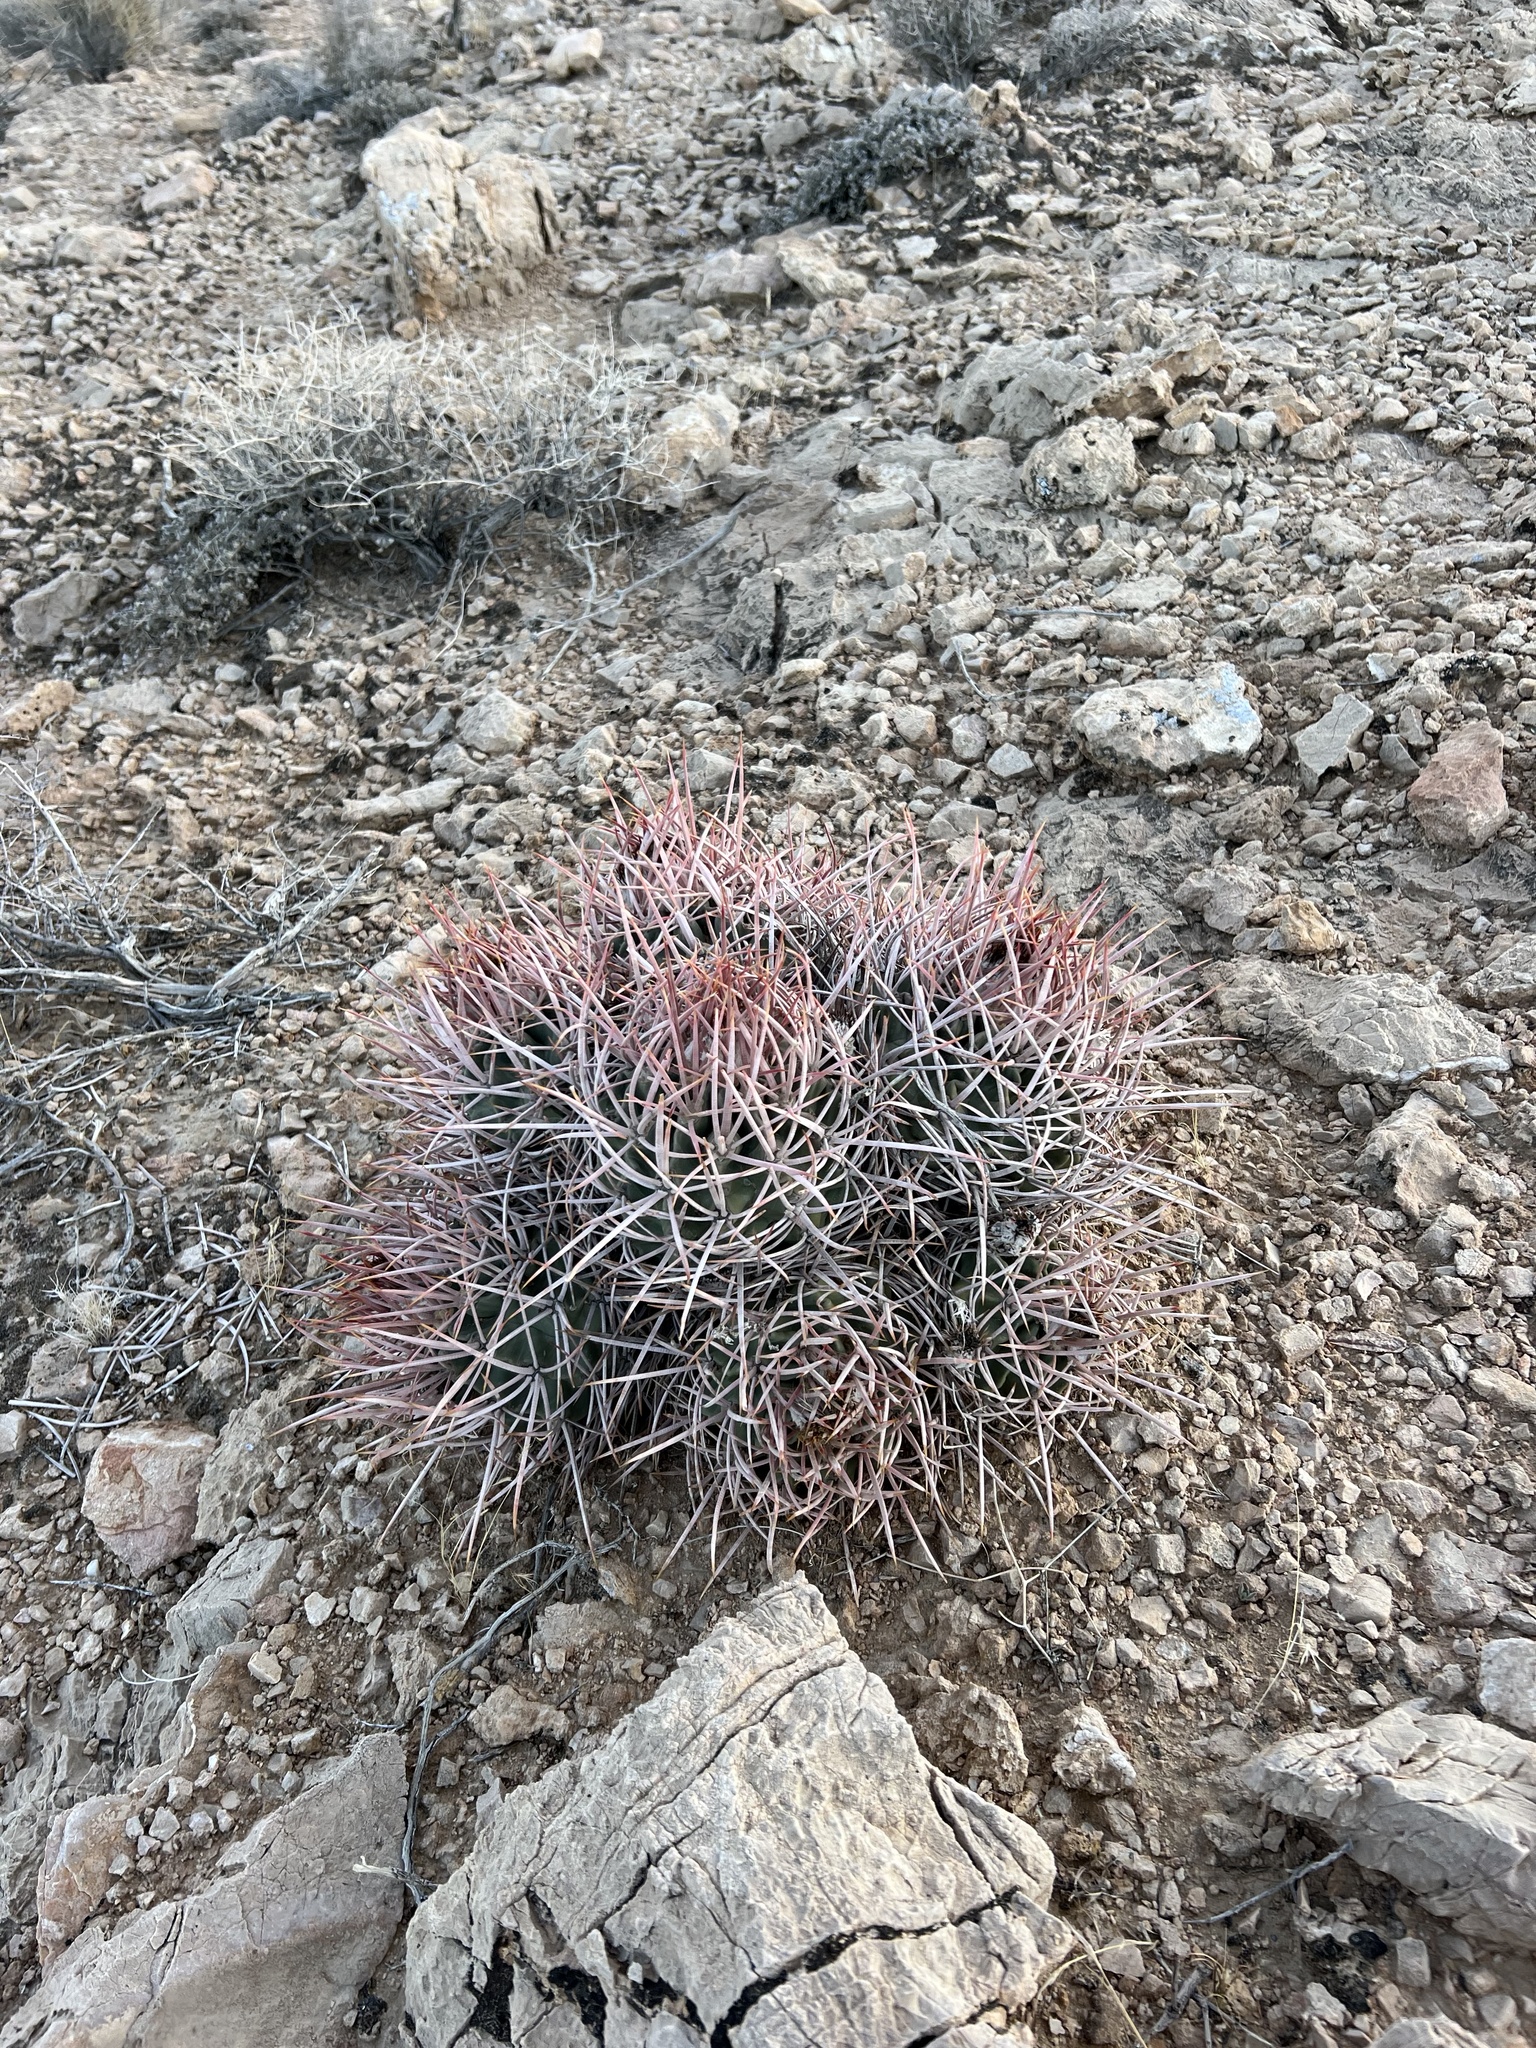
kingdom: Plantae
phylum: Tracheophyta
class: Magnoliopsida
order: Caryophyllales
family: Cactaceae
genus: Echinocactus
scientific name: Echinocactus polycephalus
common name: Cottontop cactus
